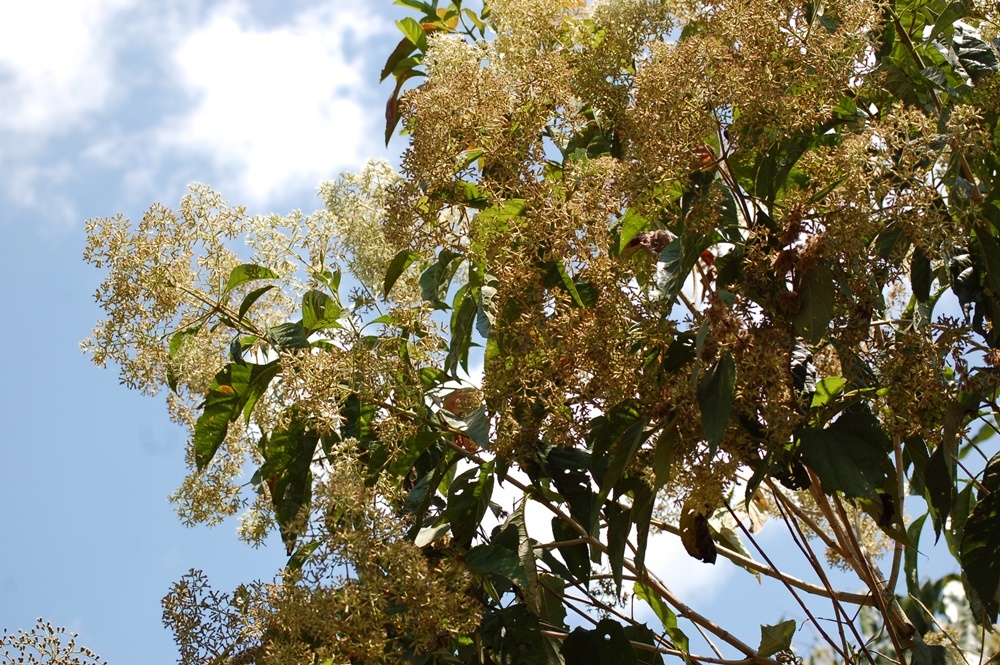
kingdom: Plantae
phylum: Tracheophyta
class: Magnoliopsida
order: Asterales
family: Asteraceae
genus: Koanophyllon
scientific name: Koanophyllon pittieri
